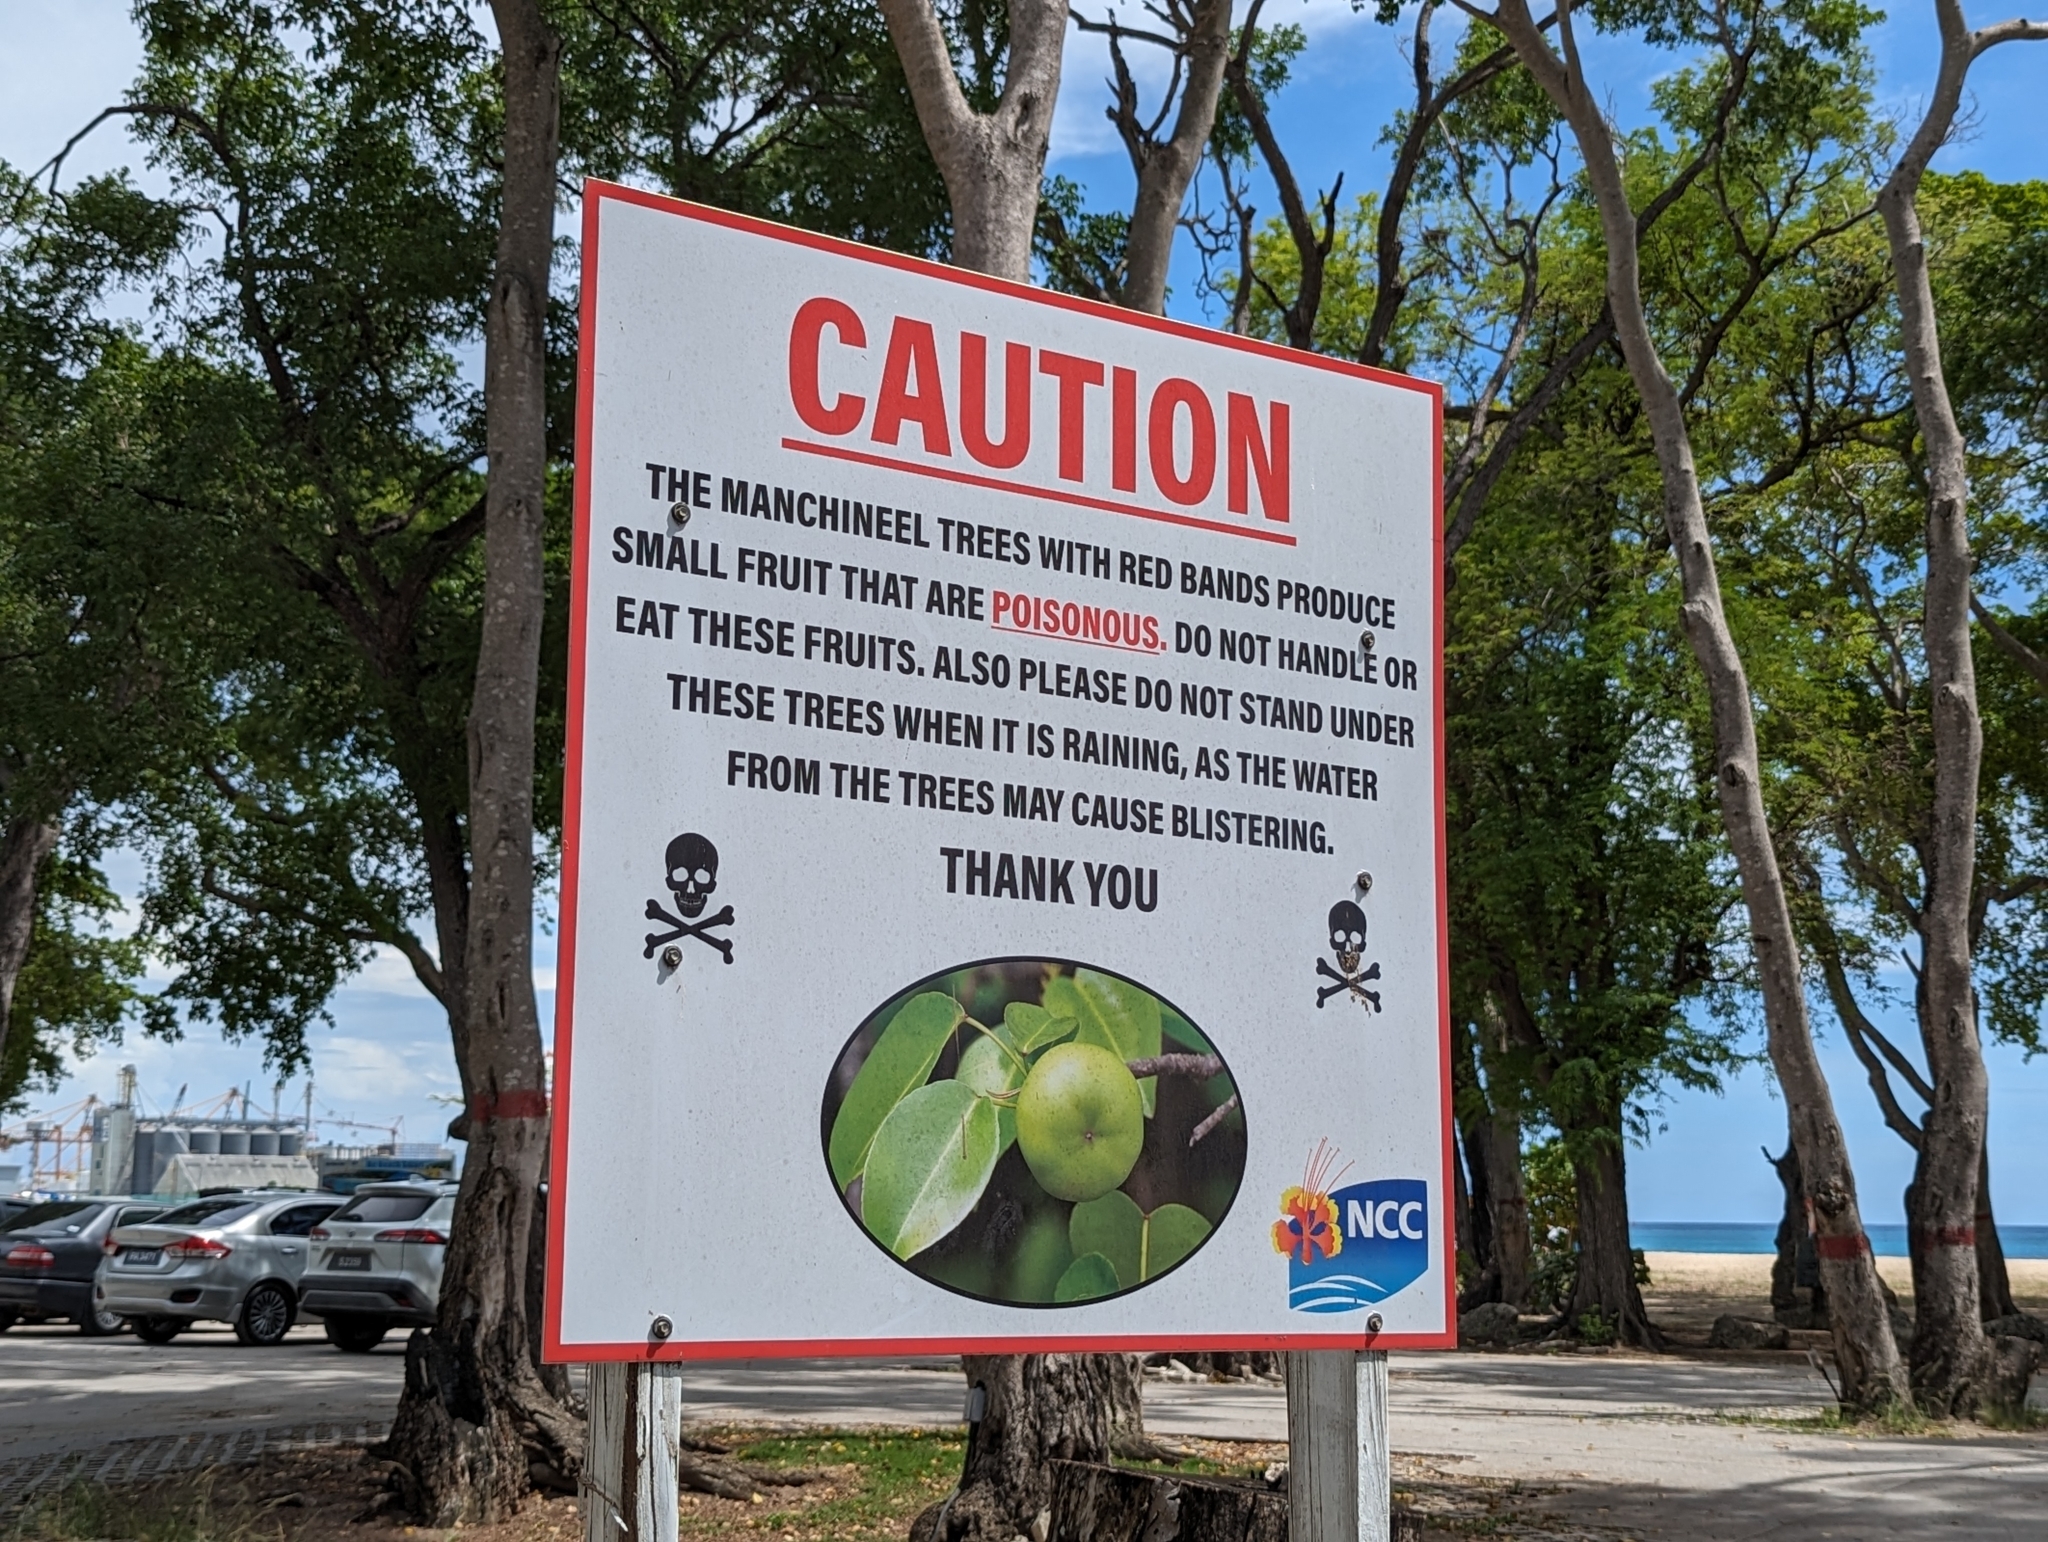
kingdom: Plantae
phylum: Tracheophyta
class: Magnoliopsida
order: Malpighiales
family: Euphorbiaceae
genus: Hippomane
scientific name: Hippomane mancinella
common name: Manchineel
